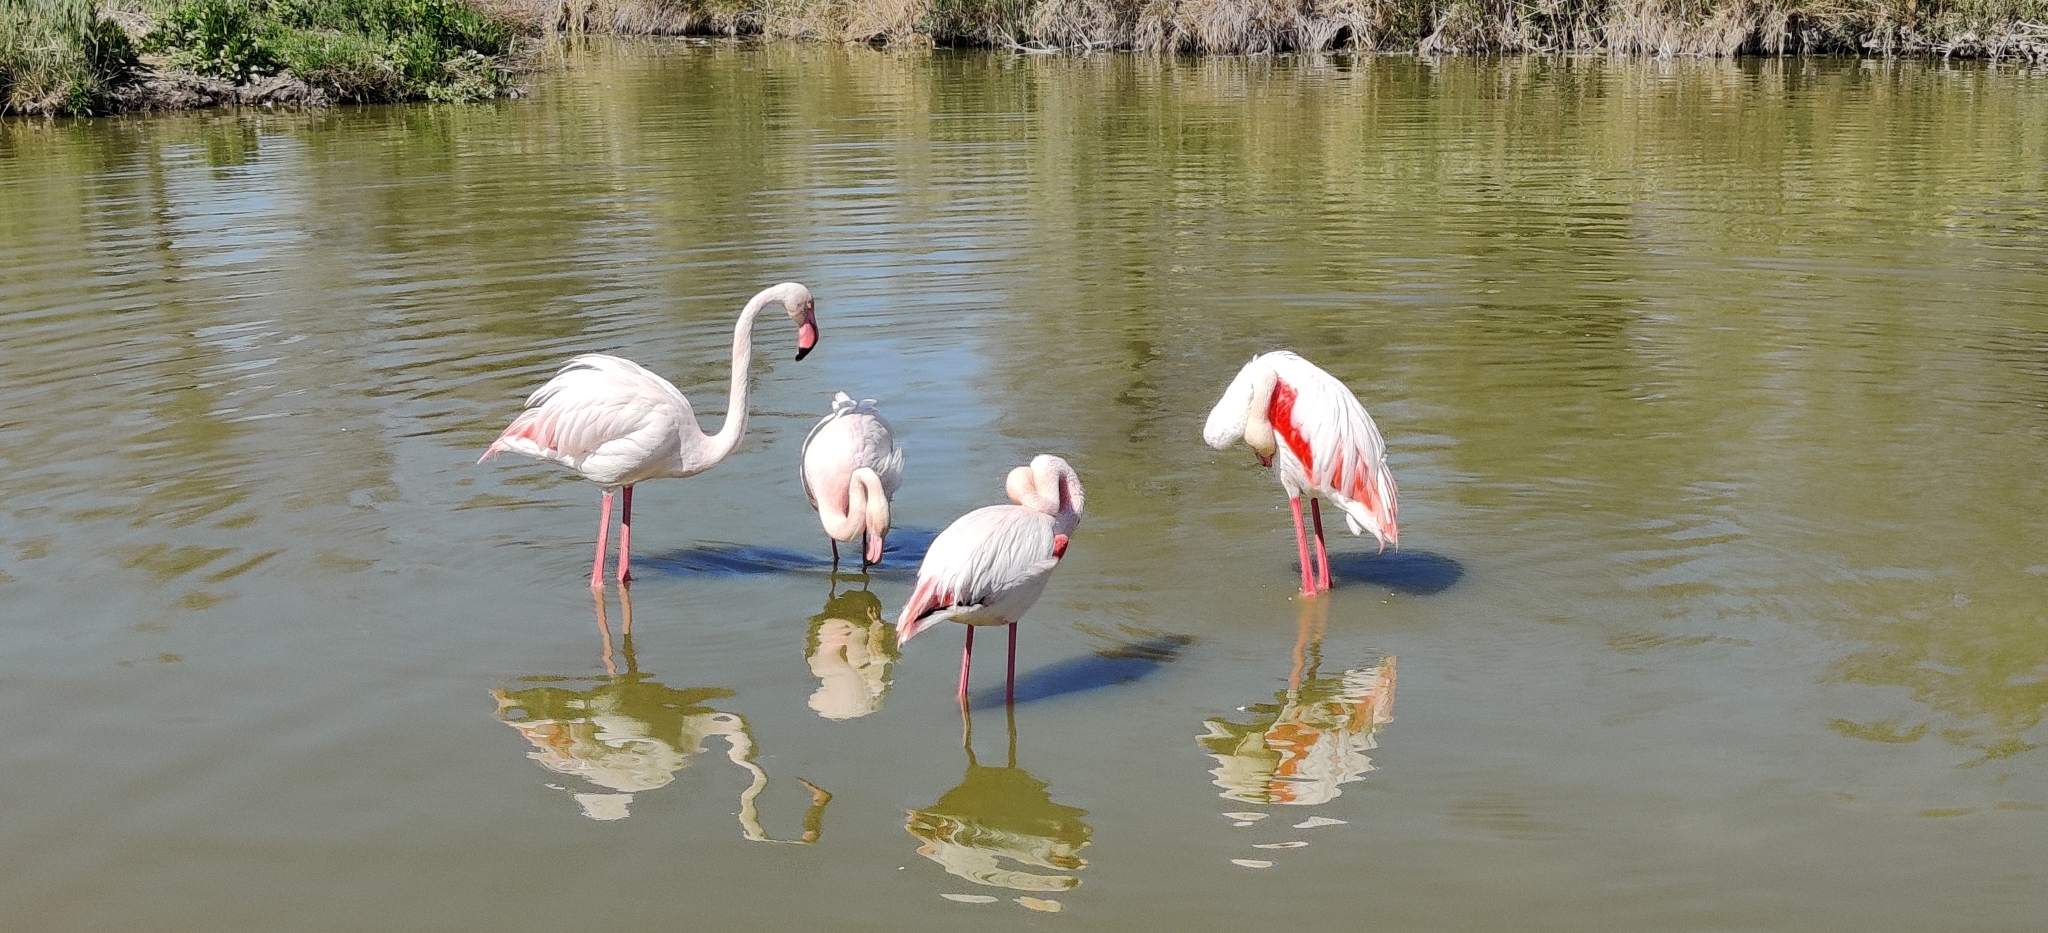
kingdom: Animalia
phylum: Chordata
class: Aves
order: Phoenicopteriformes
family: Phoenicopteridae
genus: Phoenicopterus
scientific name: Phoenicopterus roseus
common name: Greater flamingo
